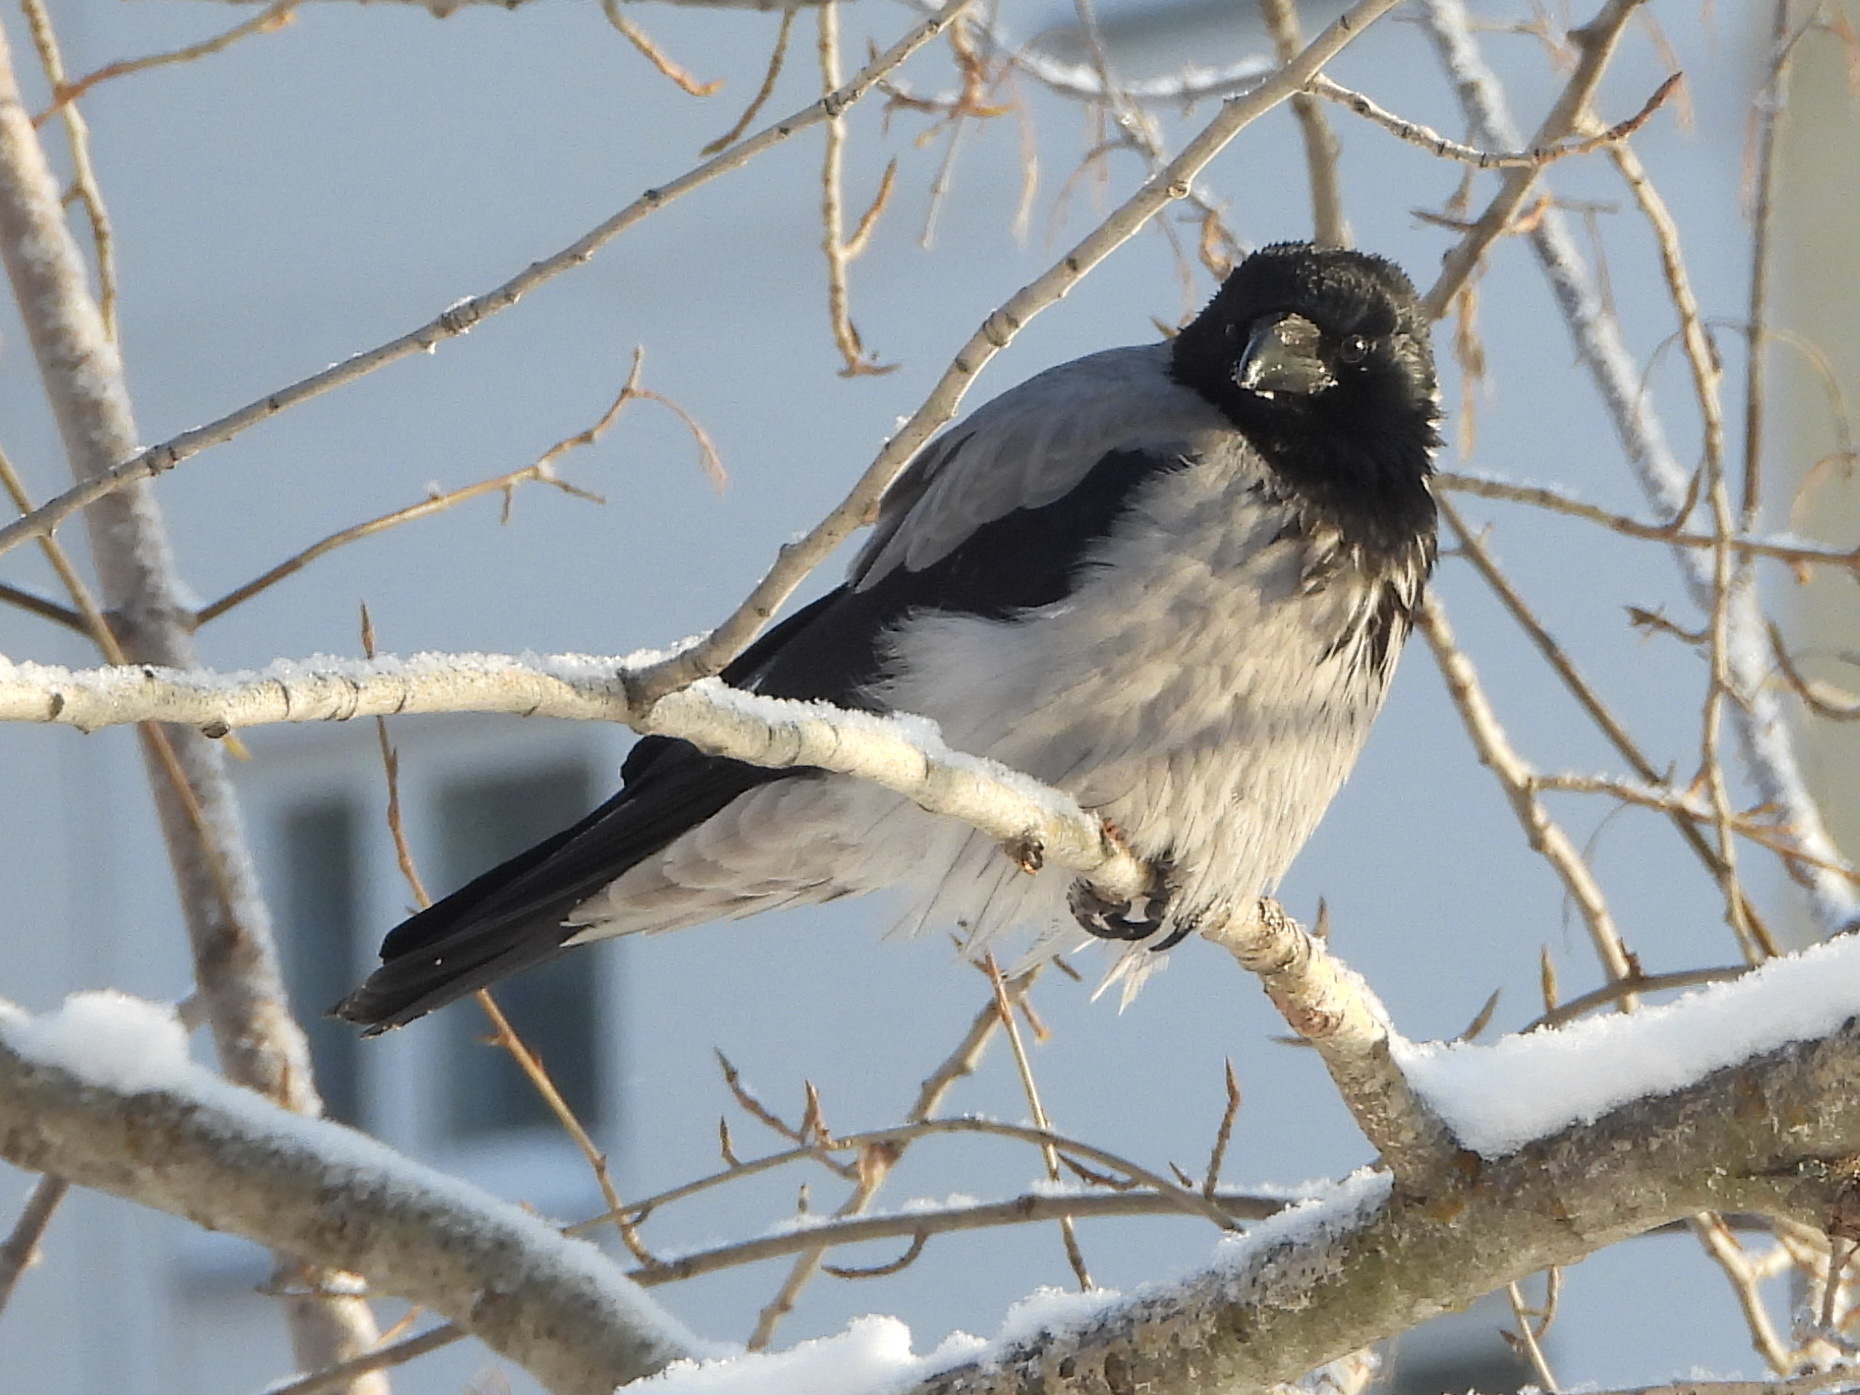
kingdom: Animalia
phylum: Chordata
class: Aves
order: Passeriformes
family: Corvidae
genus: Corvus
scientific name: Corvus cornix
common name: Hooded crow
